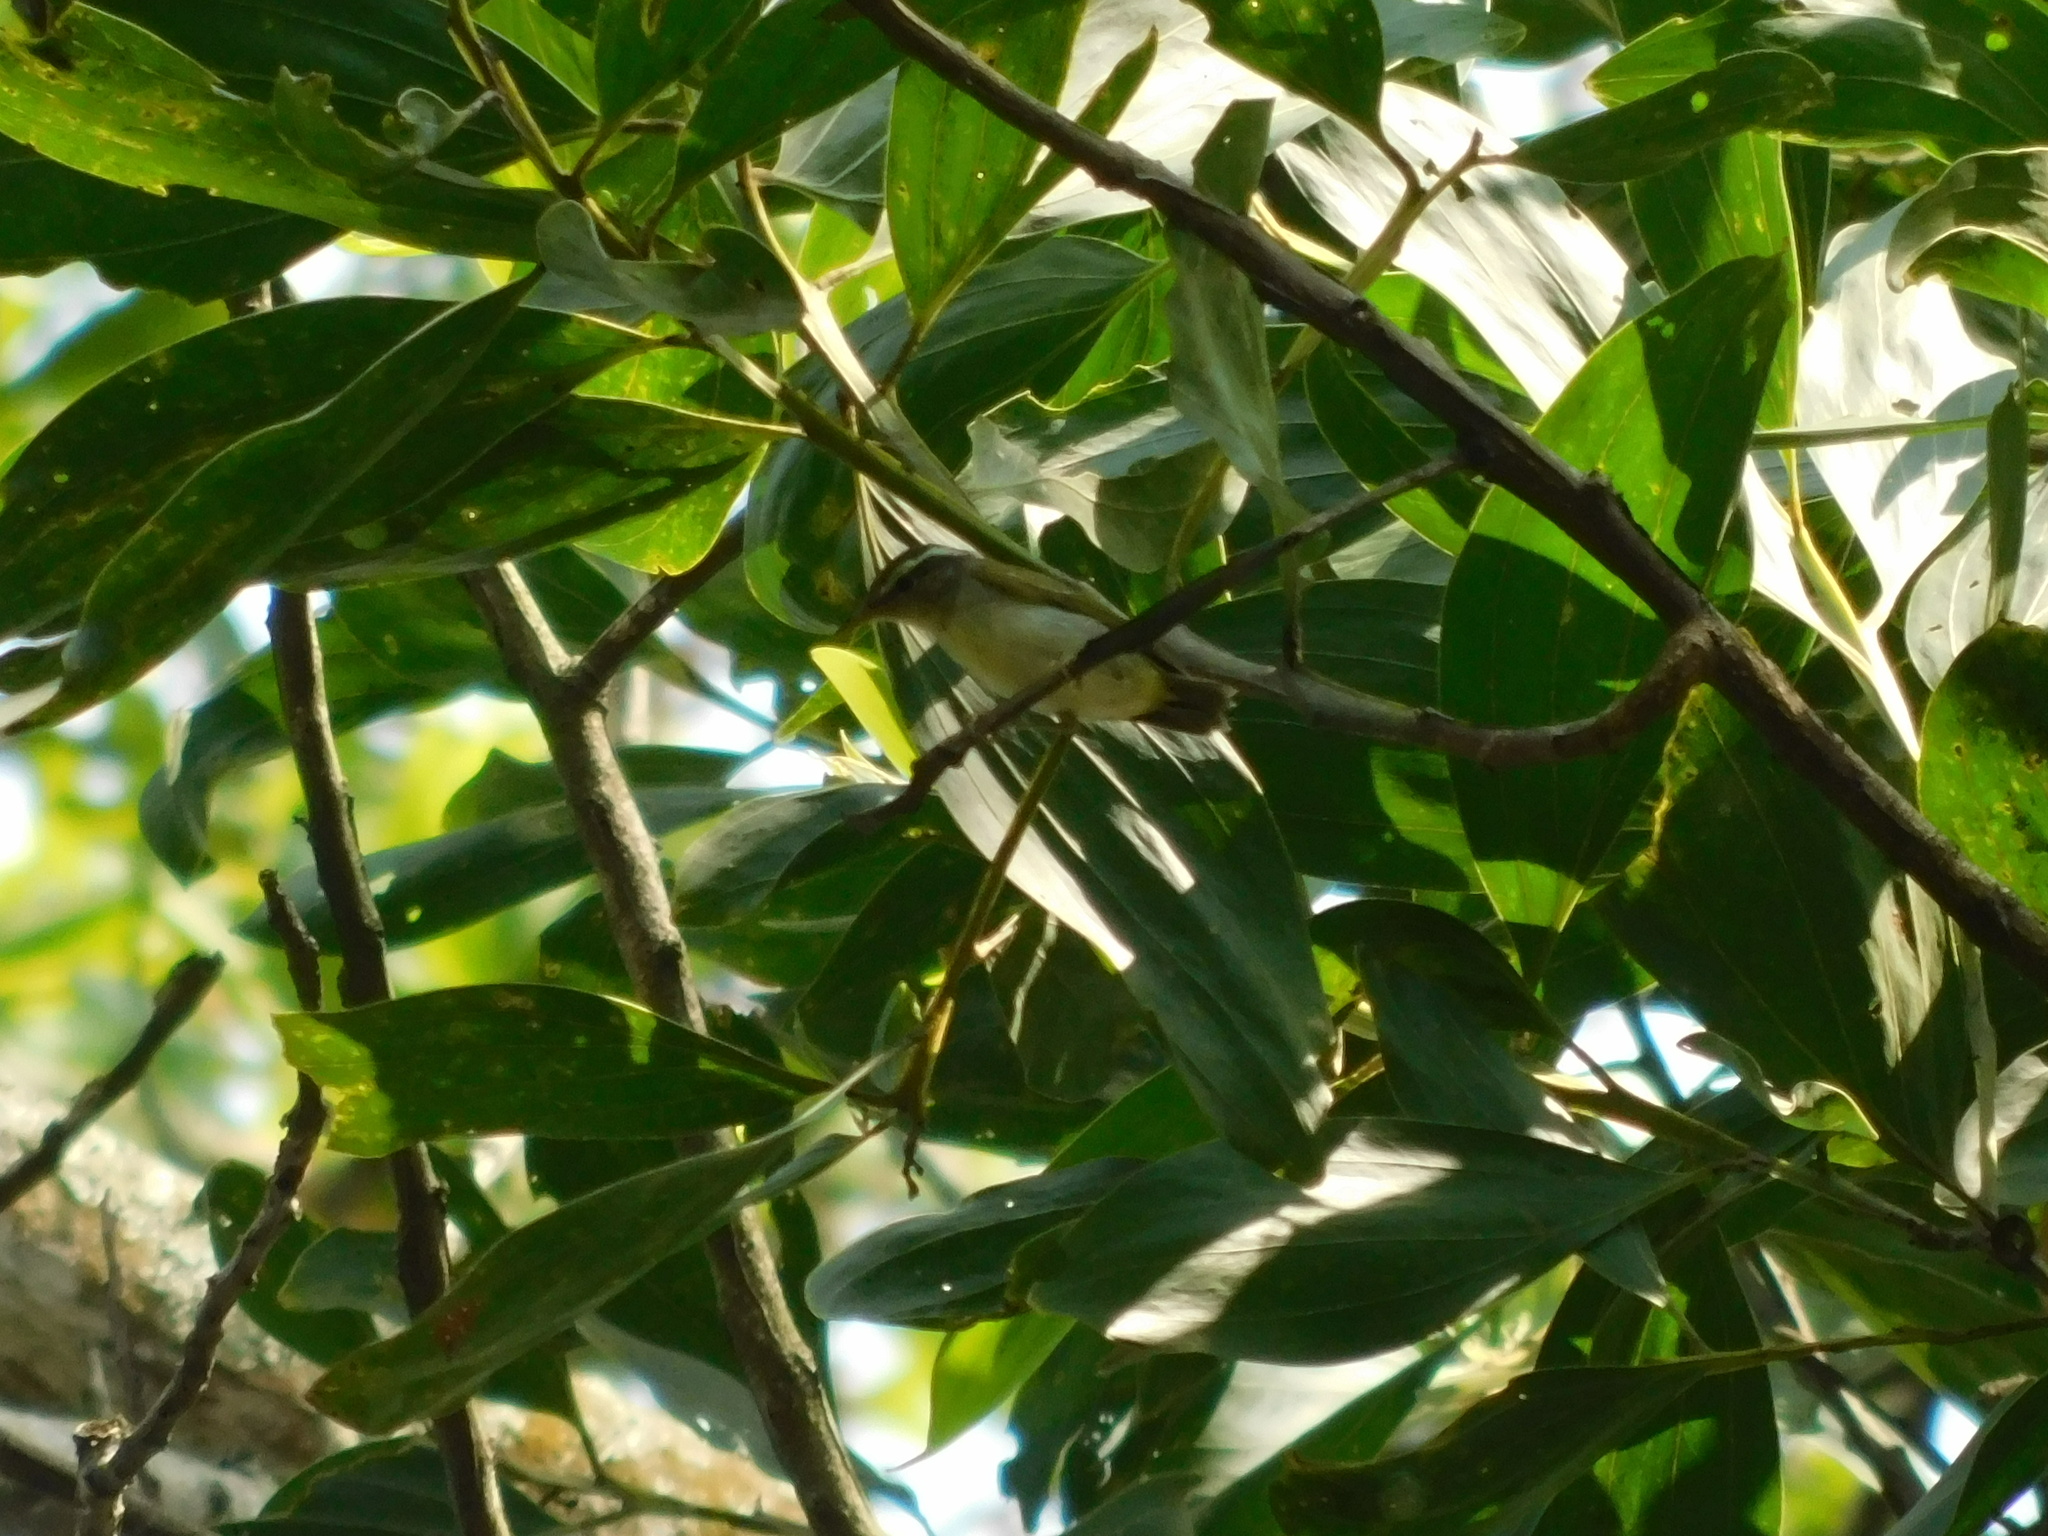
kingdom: Animalia
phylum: Chordata
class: Aves
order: Passeriformes
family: Phylloscopidae
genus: Phylloscopus
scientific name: Phylloscopus coronatus
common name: Eastern crowned warbler
